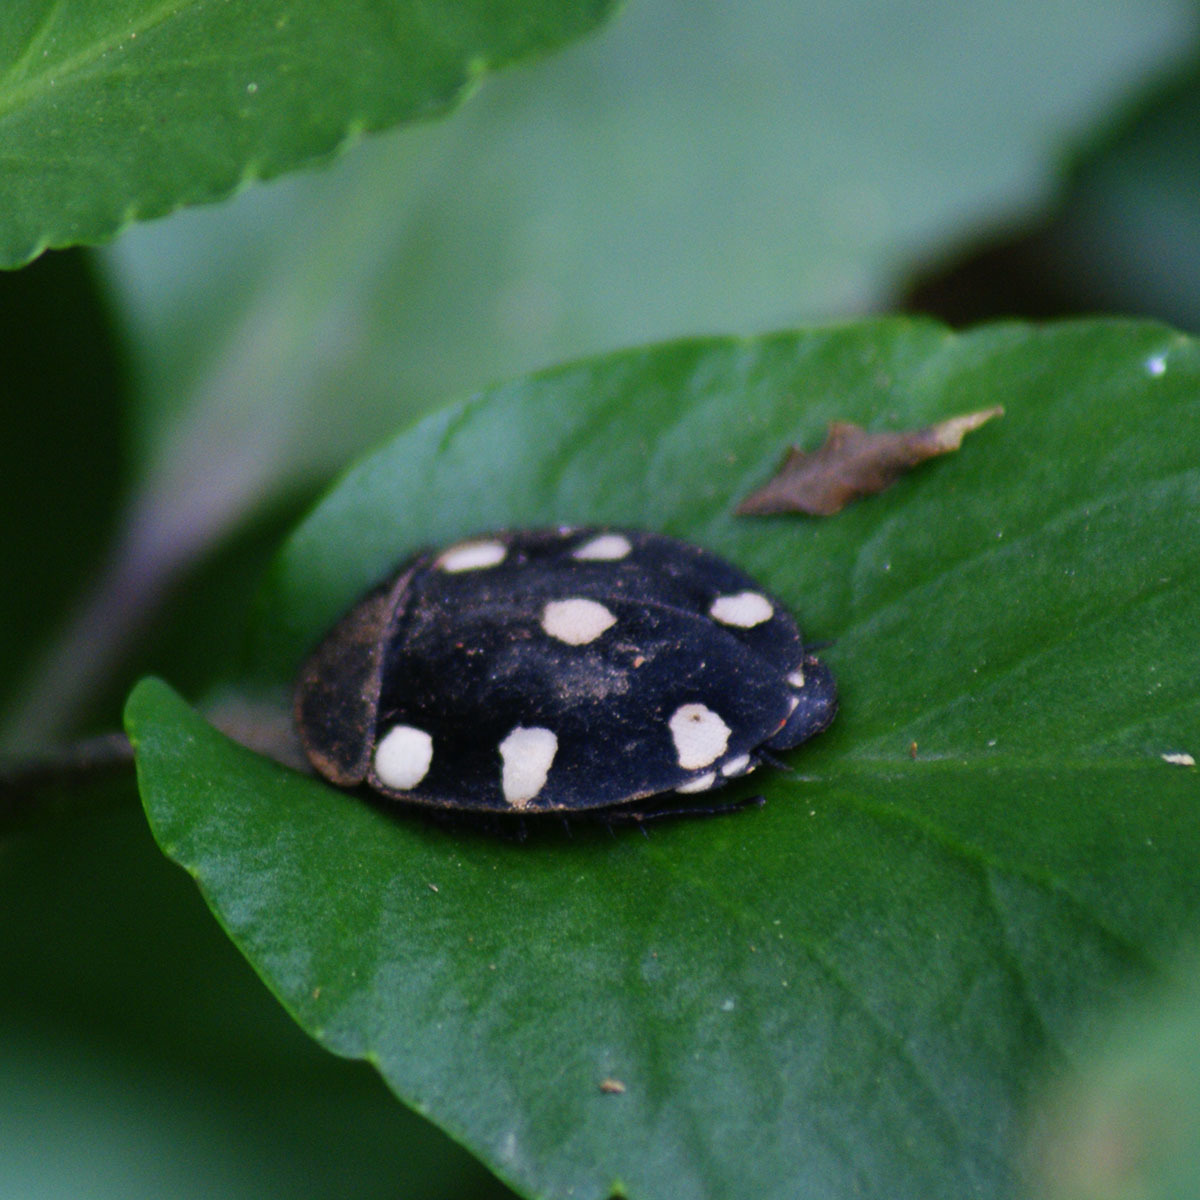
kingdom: Animalia
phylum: Arthropoda
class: Insecta
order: Blattodea
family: Corydiidae
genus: Therea
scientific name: Therea petiveriana
